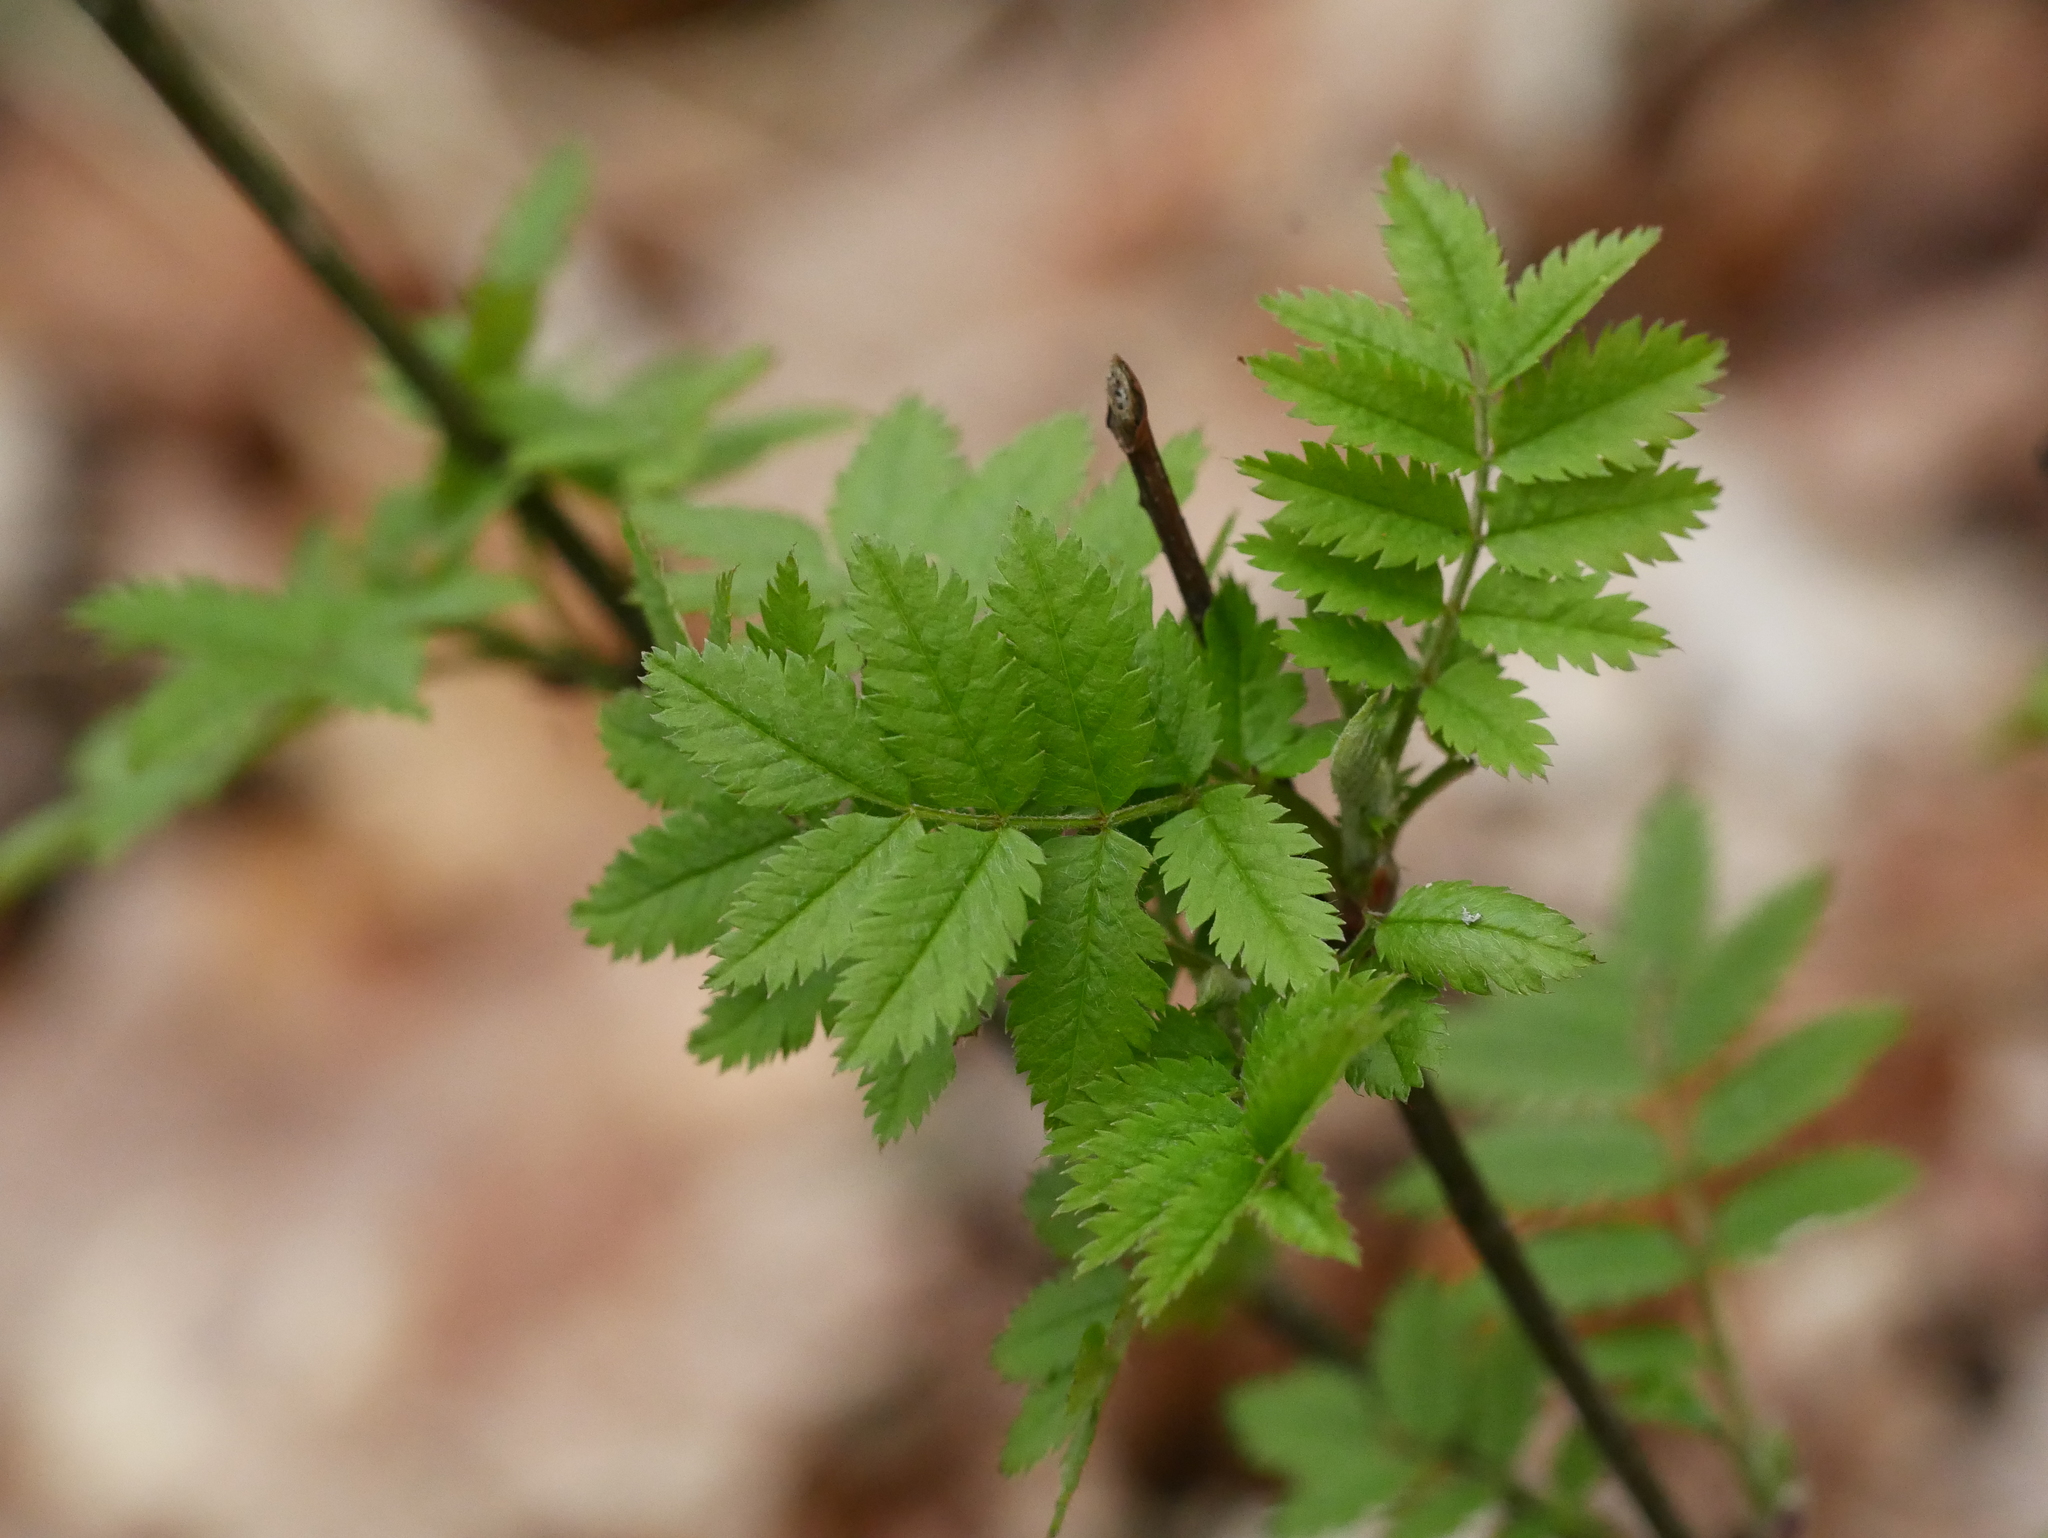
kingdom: Plantae
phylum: Tracheophyta
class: Magnoliopsida
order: Rosales
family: Rosaceae
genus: Sorbus
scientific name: Sorbus aucuparia
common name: Rowan
